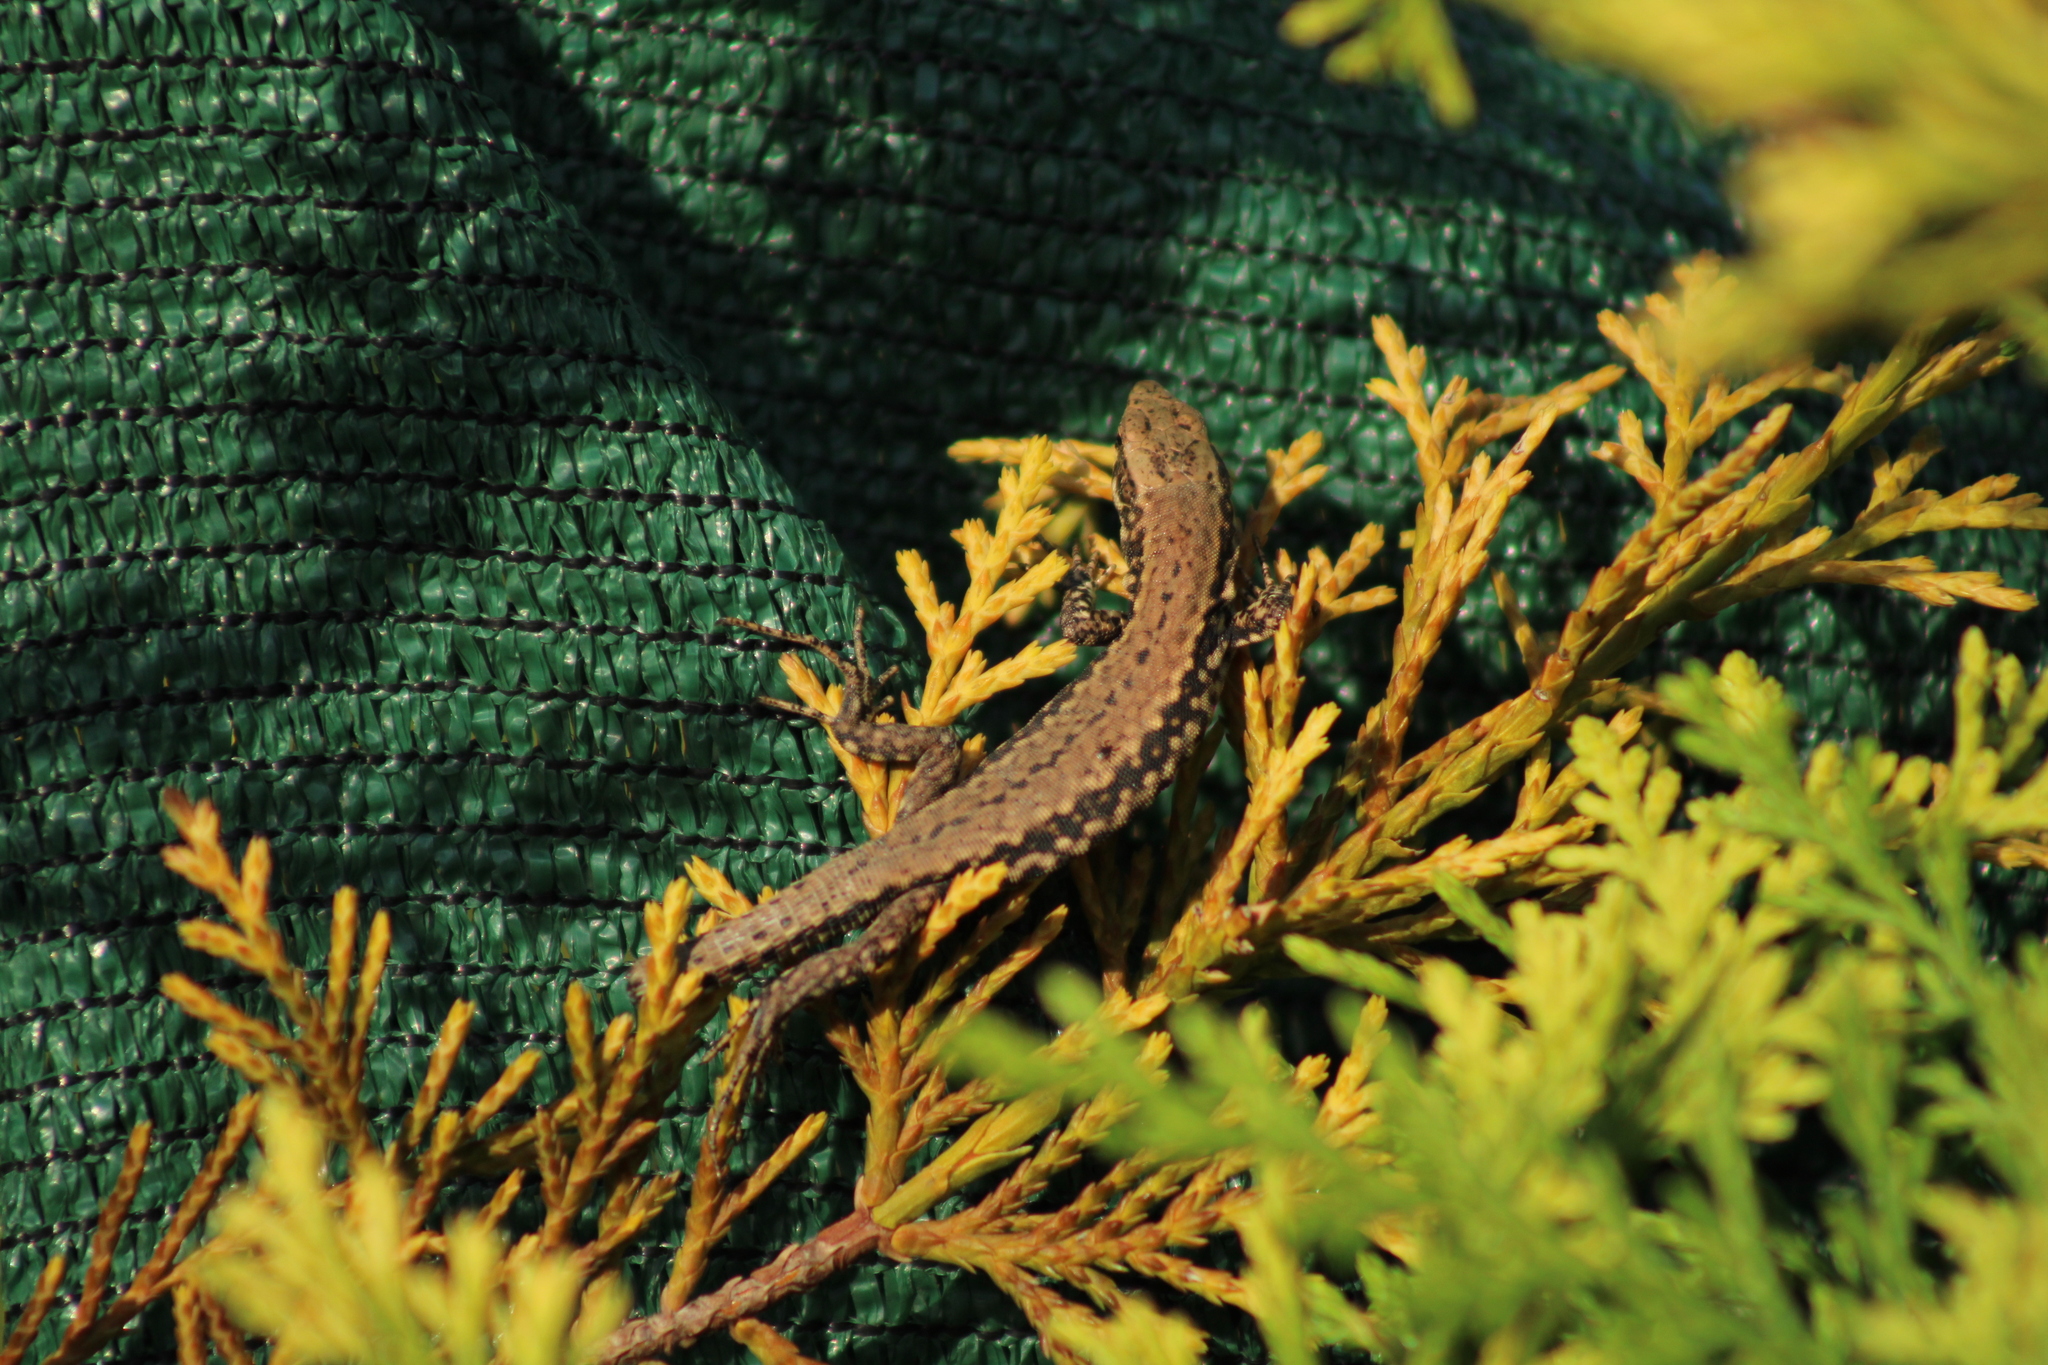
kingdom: Animalia
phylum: Chordata
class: Squamata
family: Lacertidae
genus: Podarcis
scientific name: Podarcis muralis
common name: Common wall lizard
